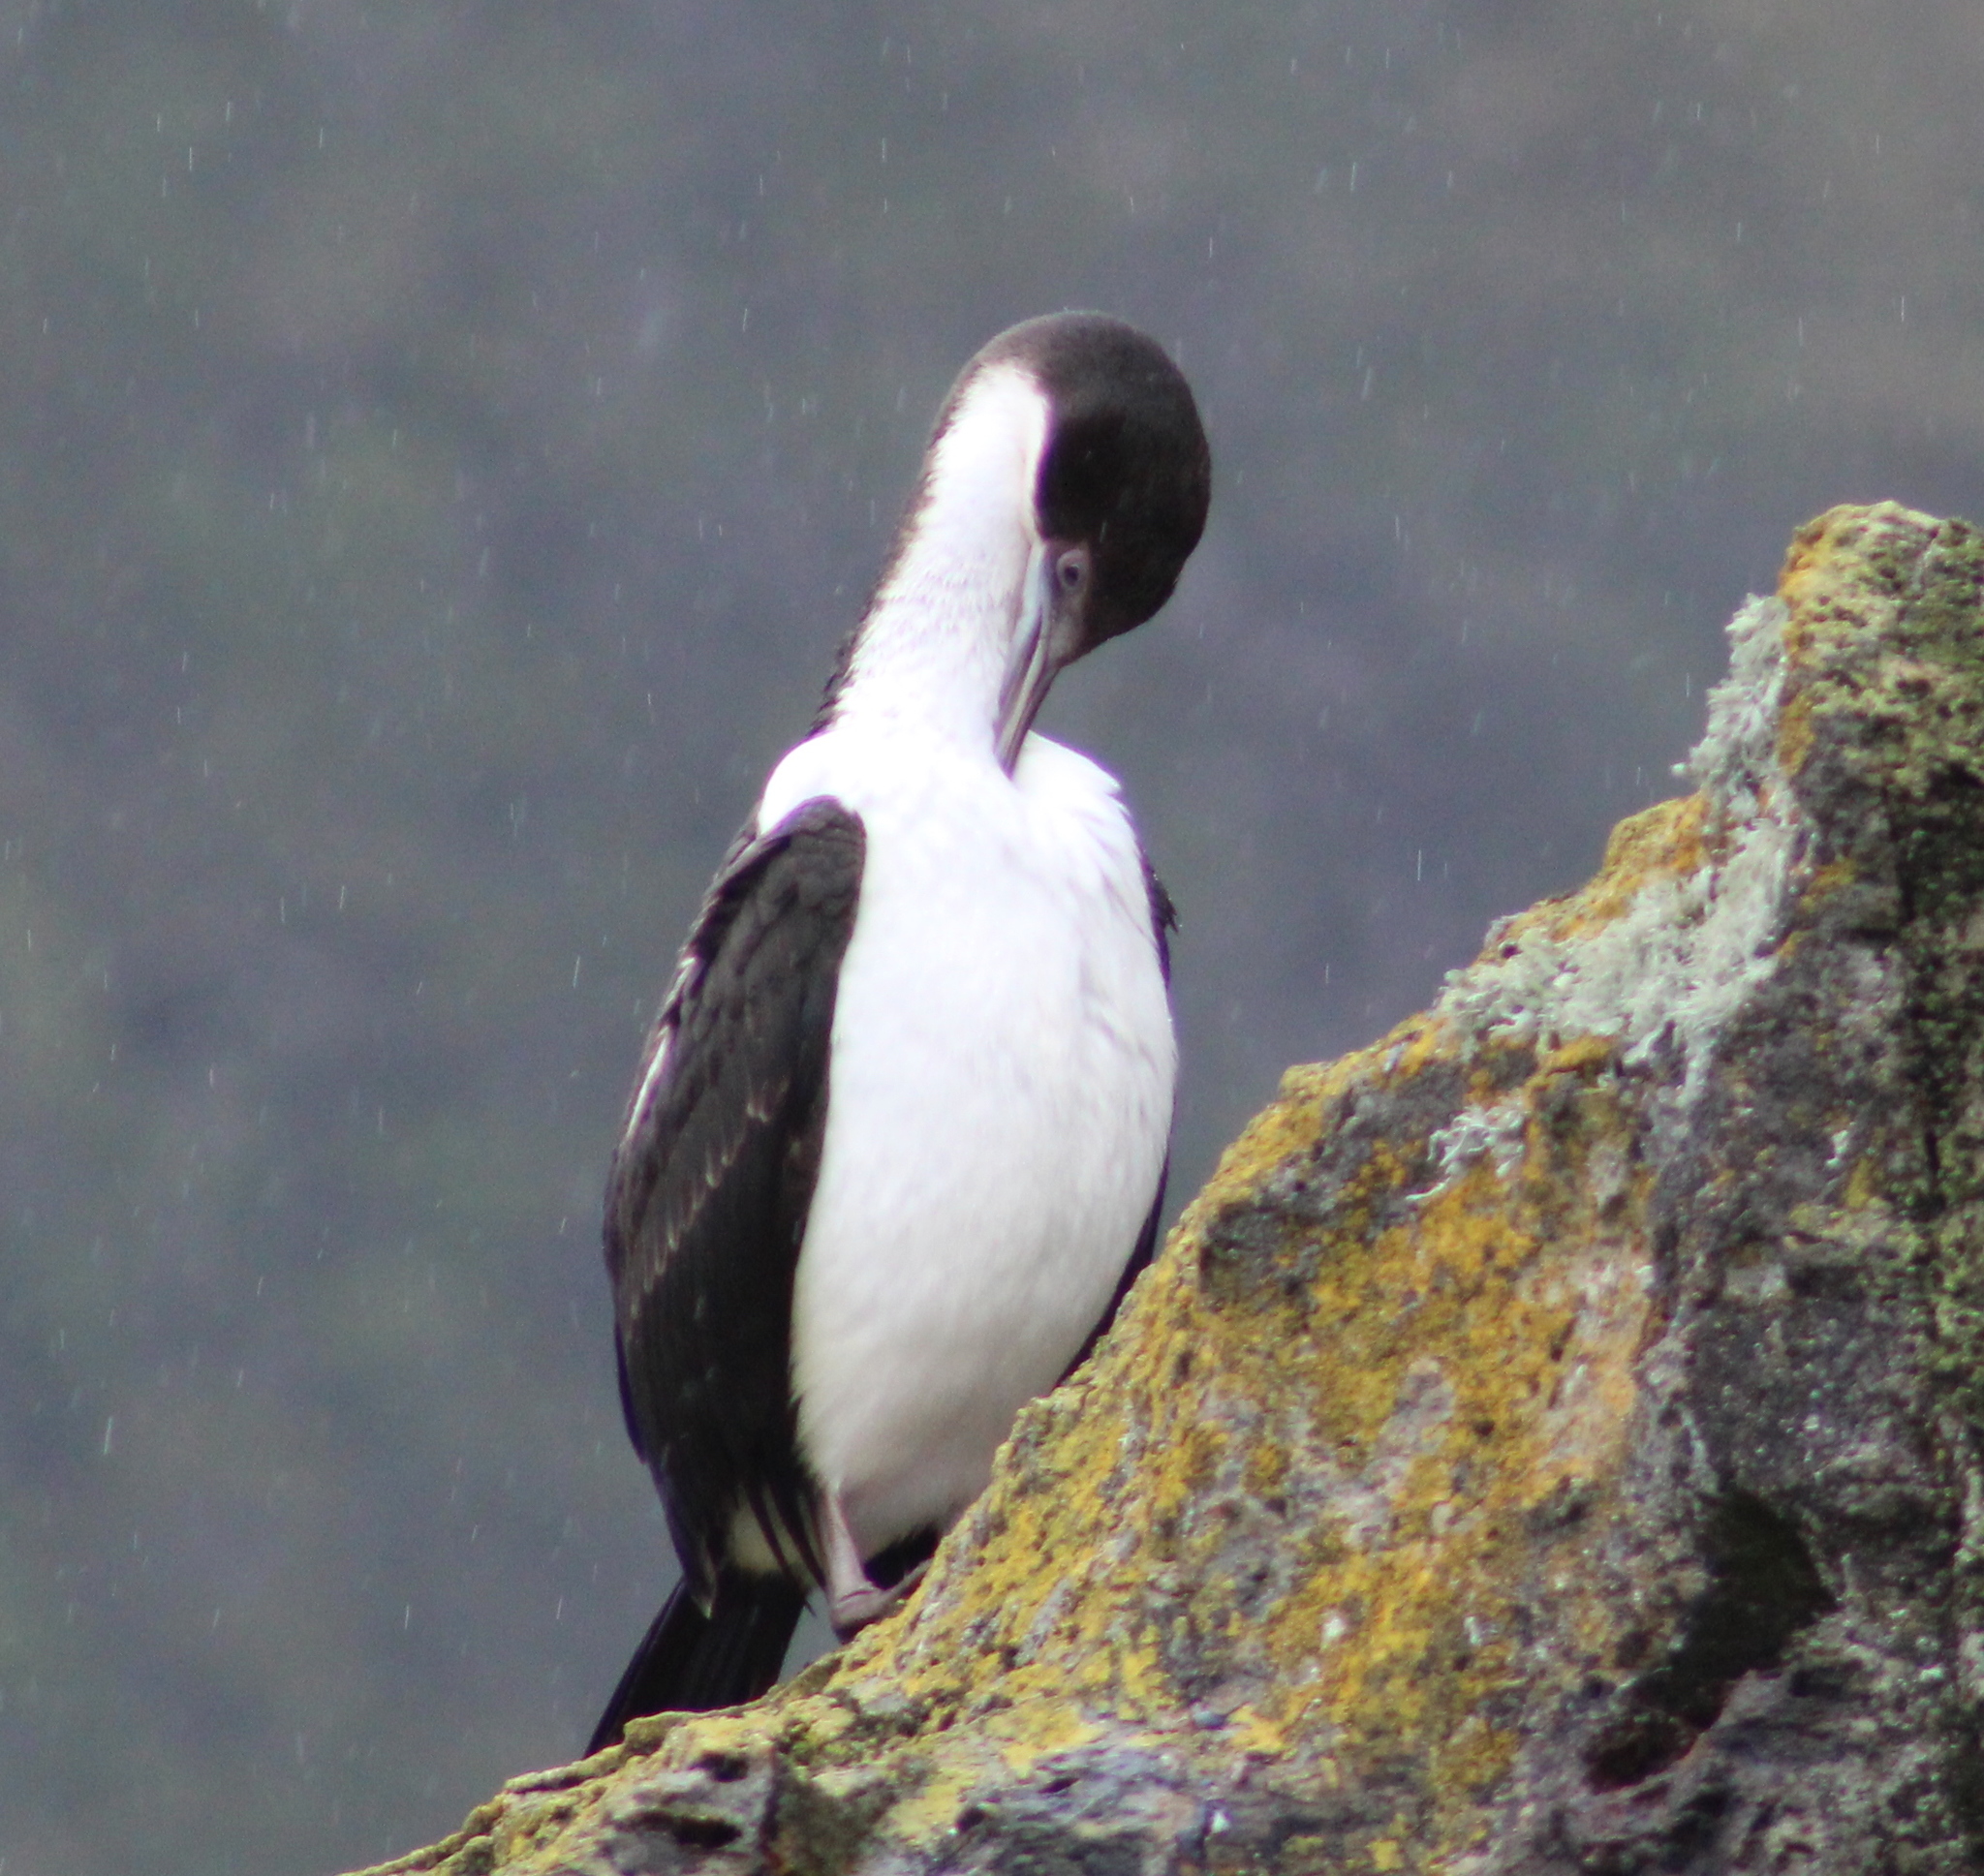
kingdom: Animalia
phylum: Chordata
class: Aves
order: Suliformes
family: Phalacrocoracidae
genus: Leucocarbo
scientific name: Leucocarbo atriceps
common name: Imperial shag
